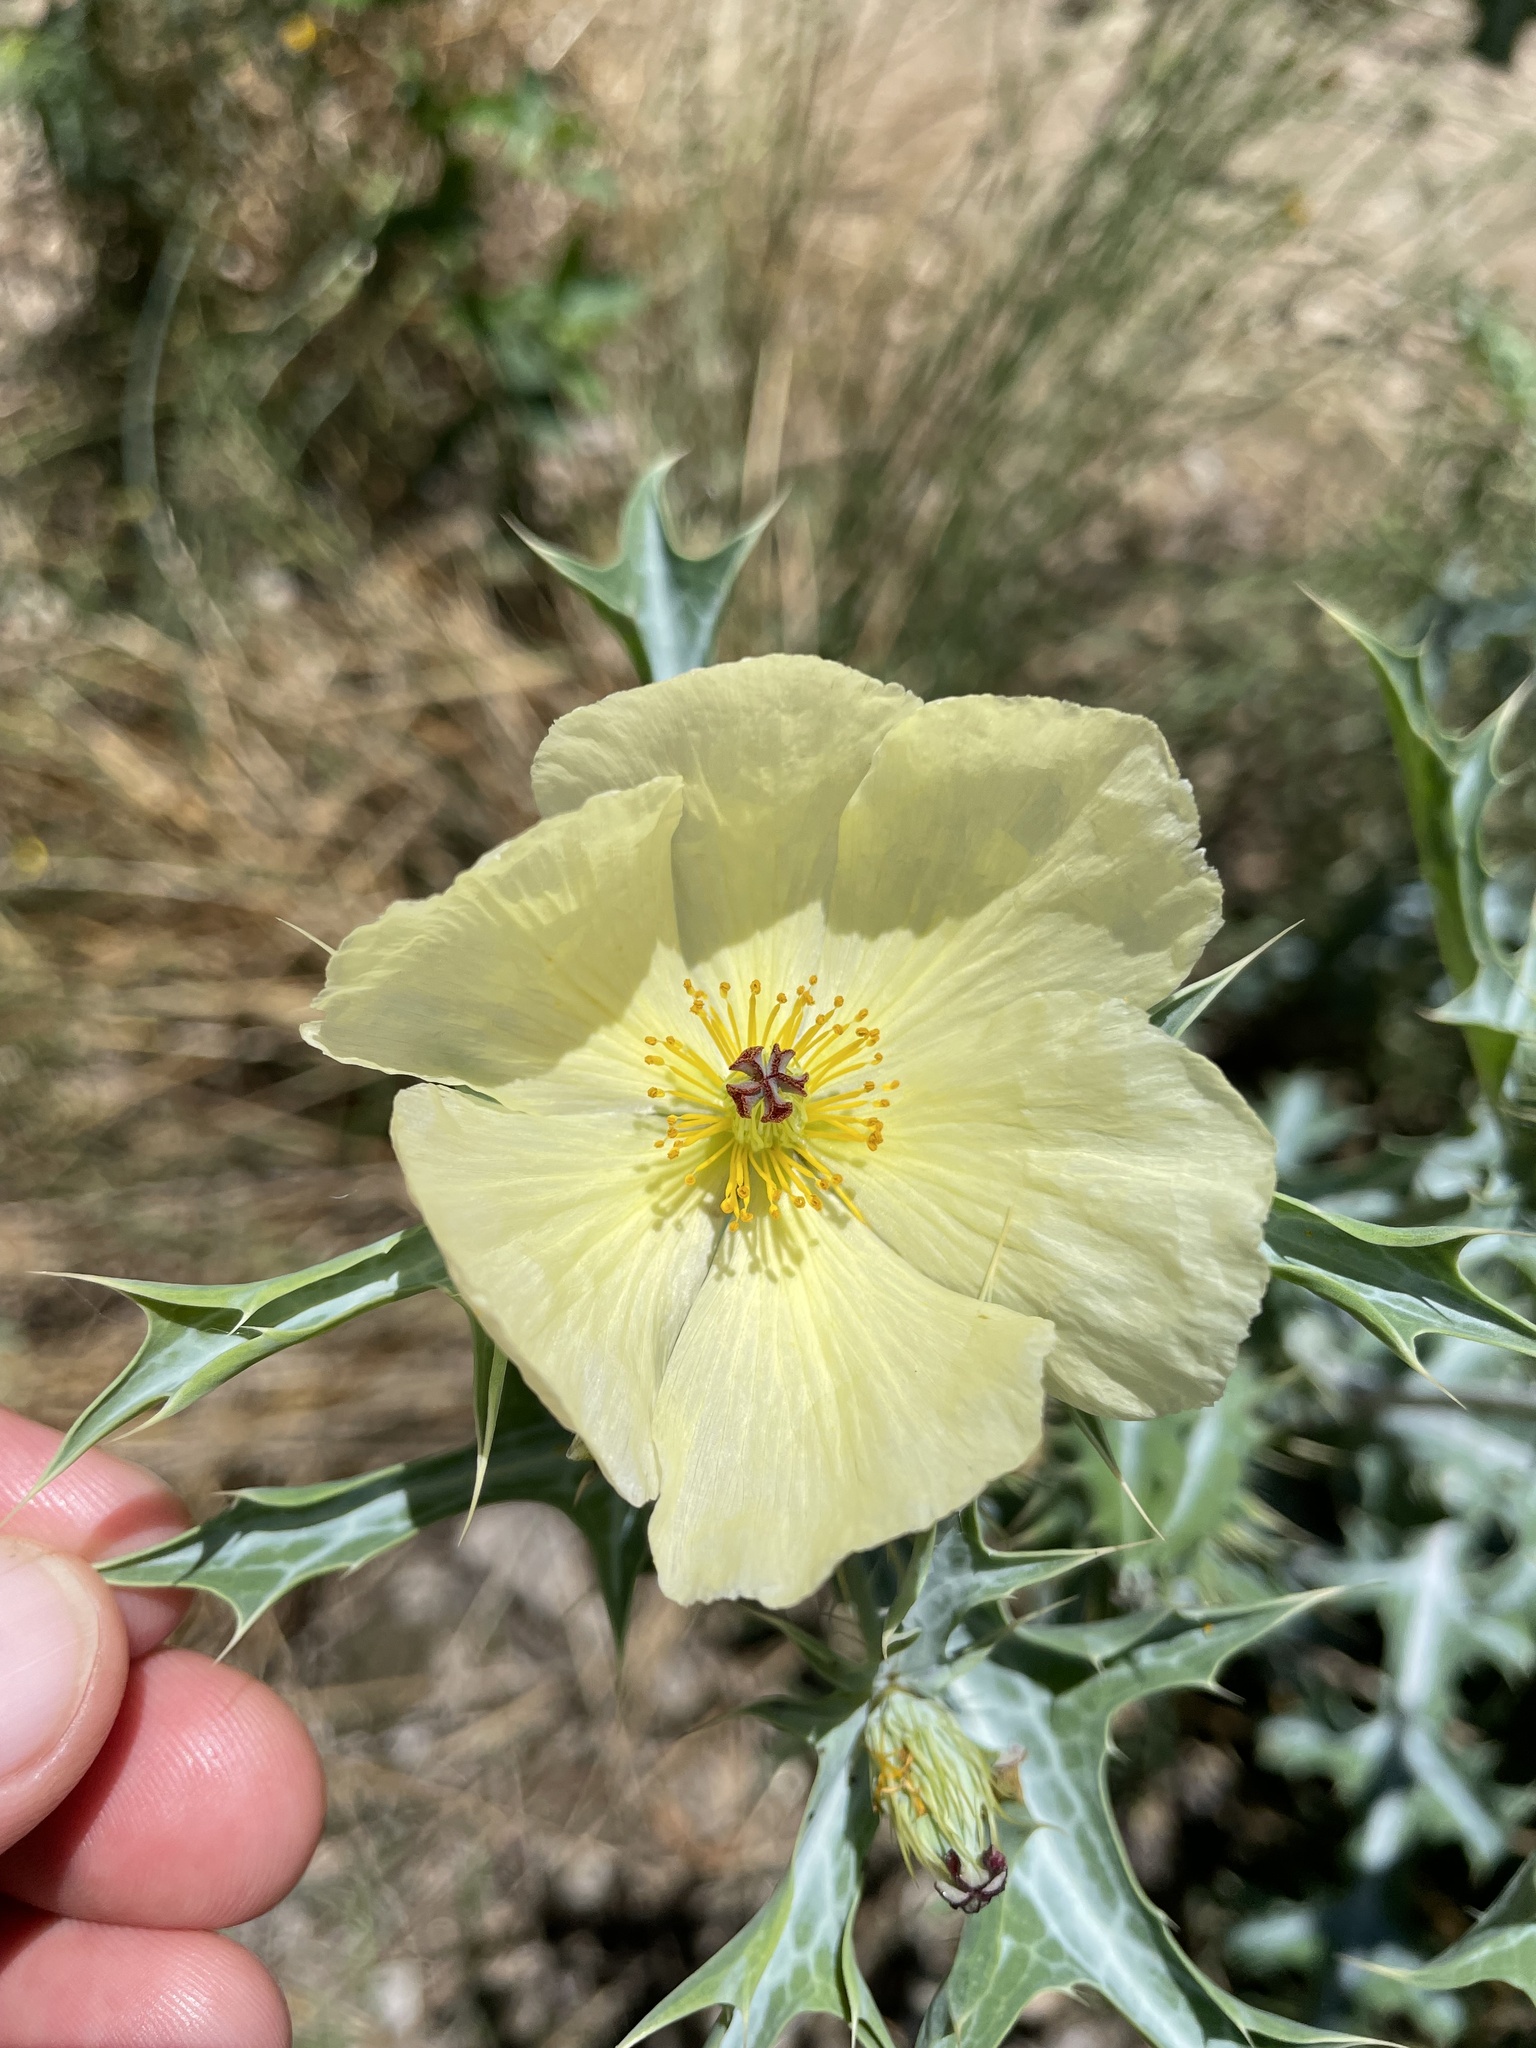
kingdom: Plantae
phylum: Tracheophyta
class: Magnoliopsida
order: Ranunculales
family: Papaveraceae
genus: Argemone
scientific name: Argemone ochroleuca
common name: White-flower mexican-poppy
